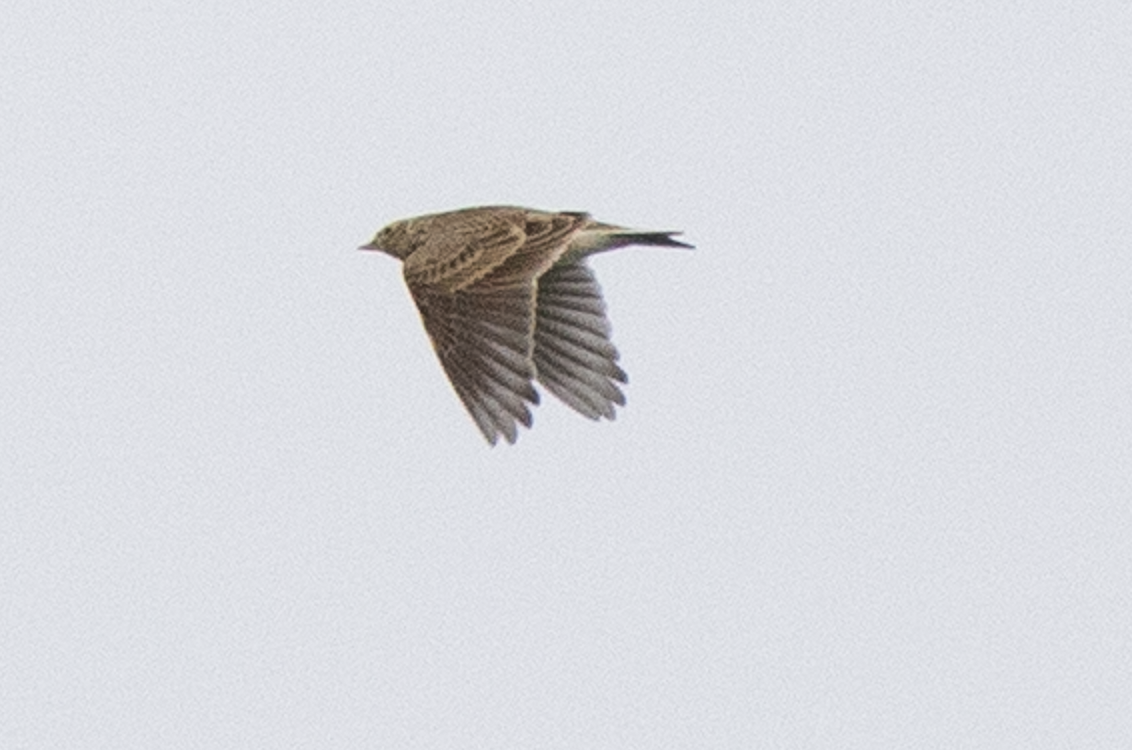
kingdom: Animalia
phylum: Chordata
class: Aves
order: Passeriformes
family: Alaudidae
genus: Alauda
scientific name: Alauda arvensis
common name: Eurasian skylark
